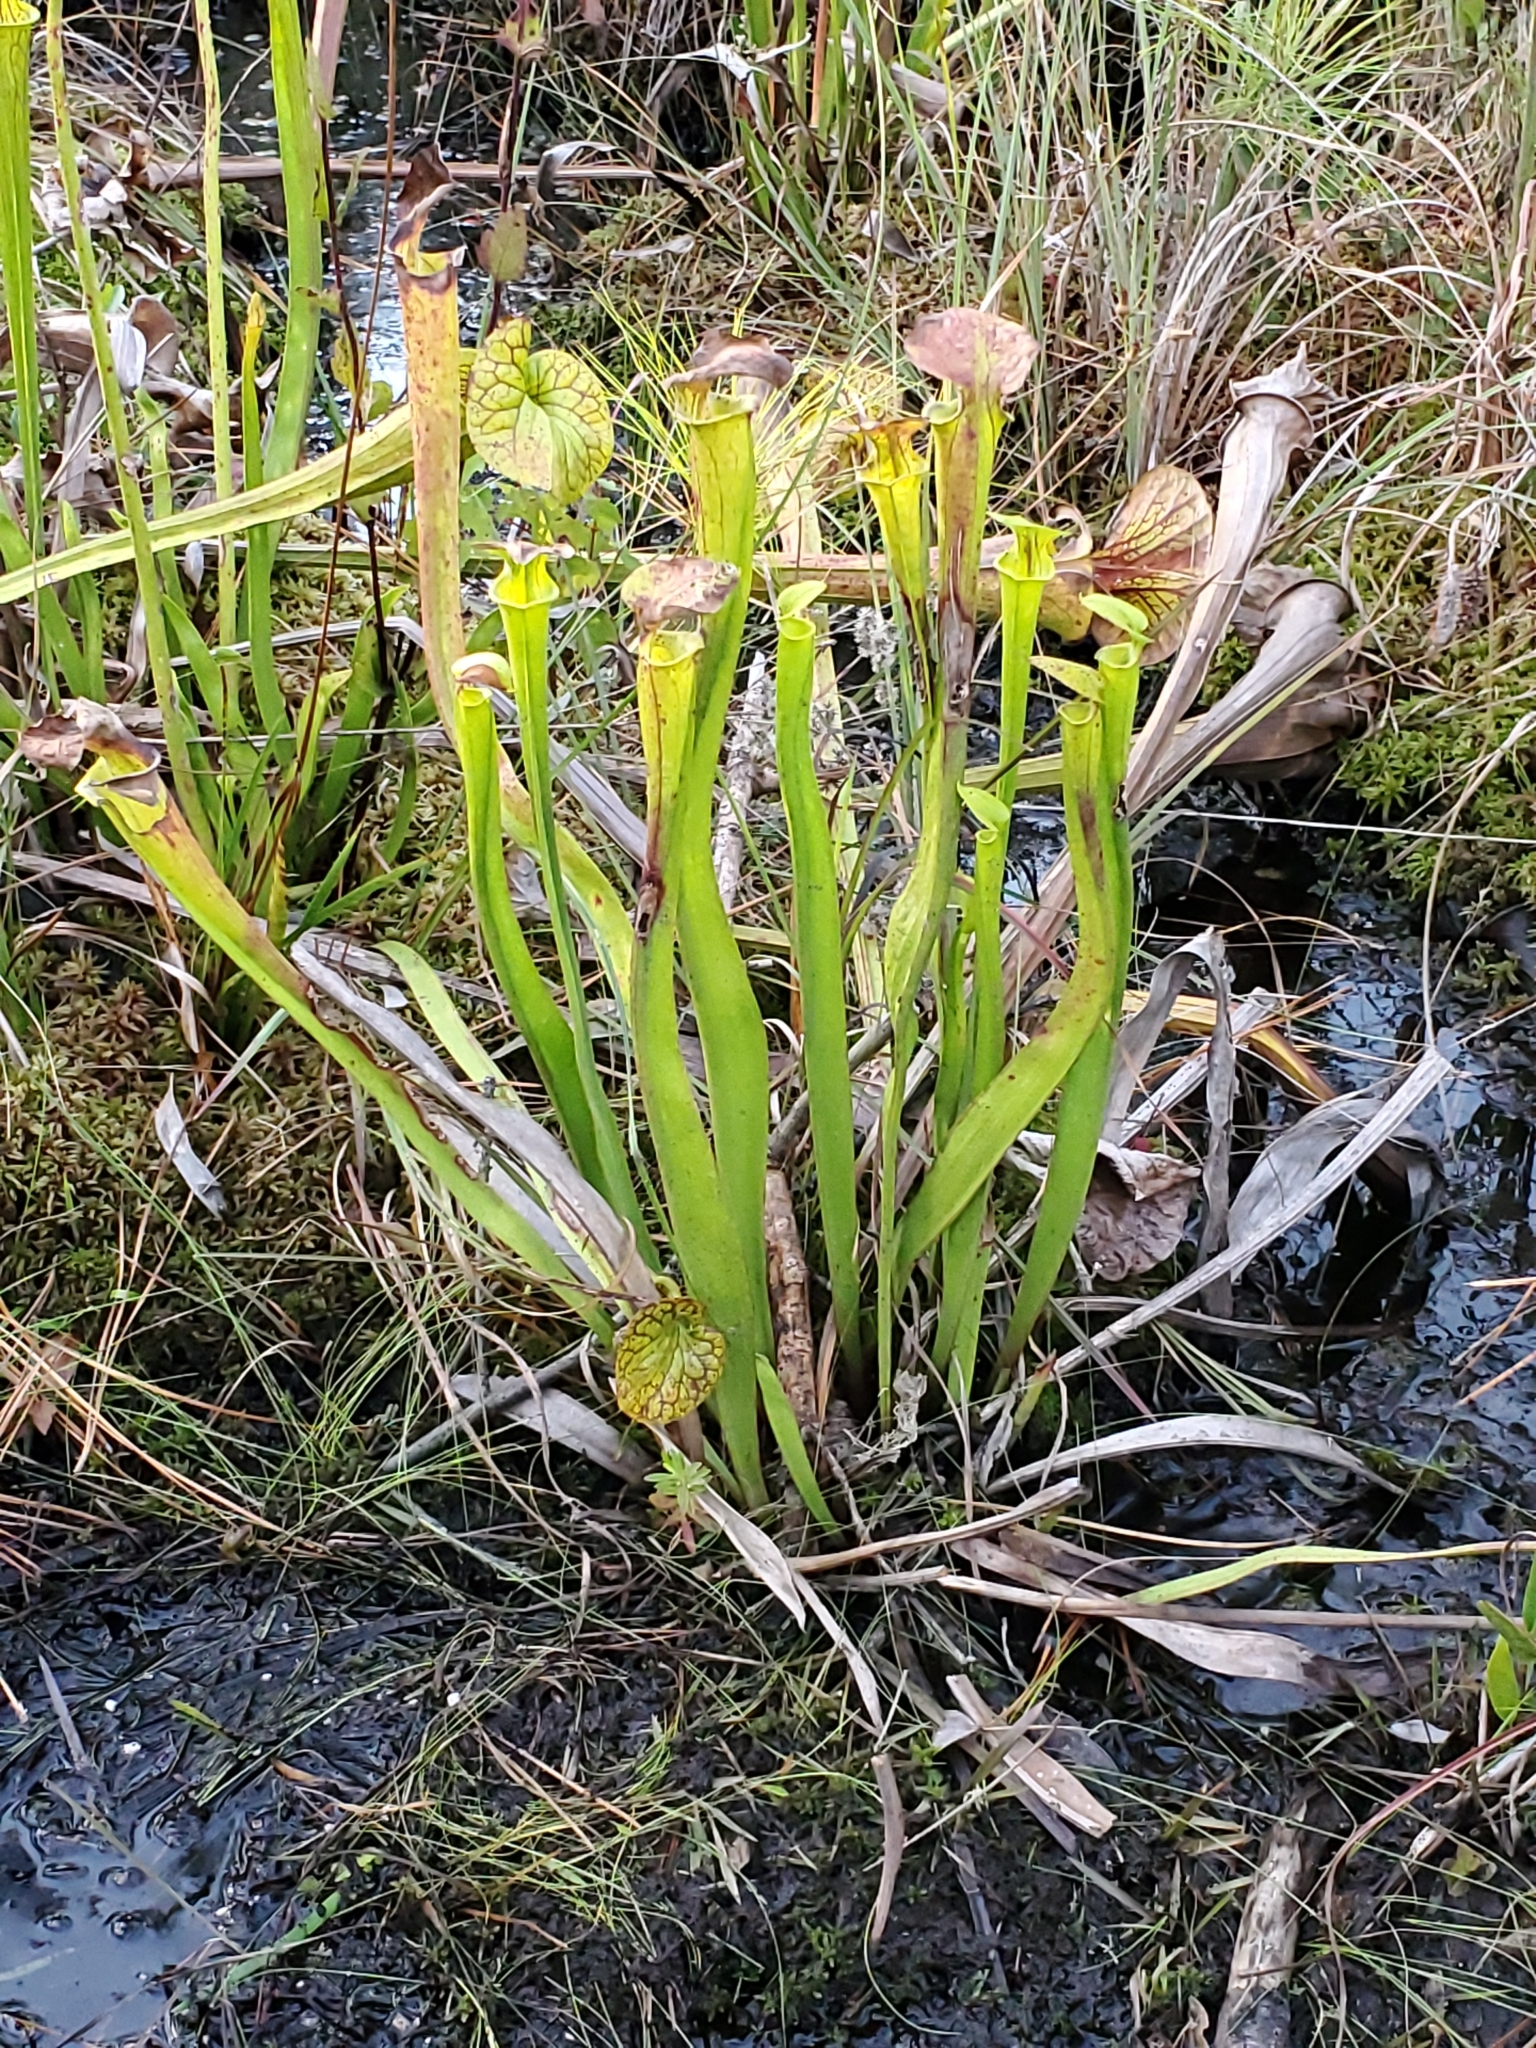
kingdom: Plantae
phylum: Tracheophyta
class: Magnoliopsida
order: Ericales
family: Sarraceniaceae
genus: Sarracenia
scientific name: Sarracenia flava
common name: Trumpets
